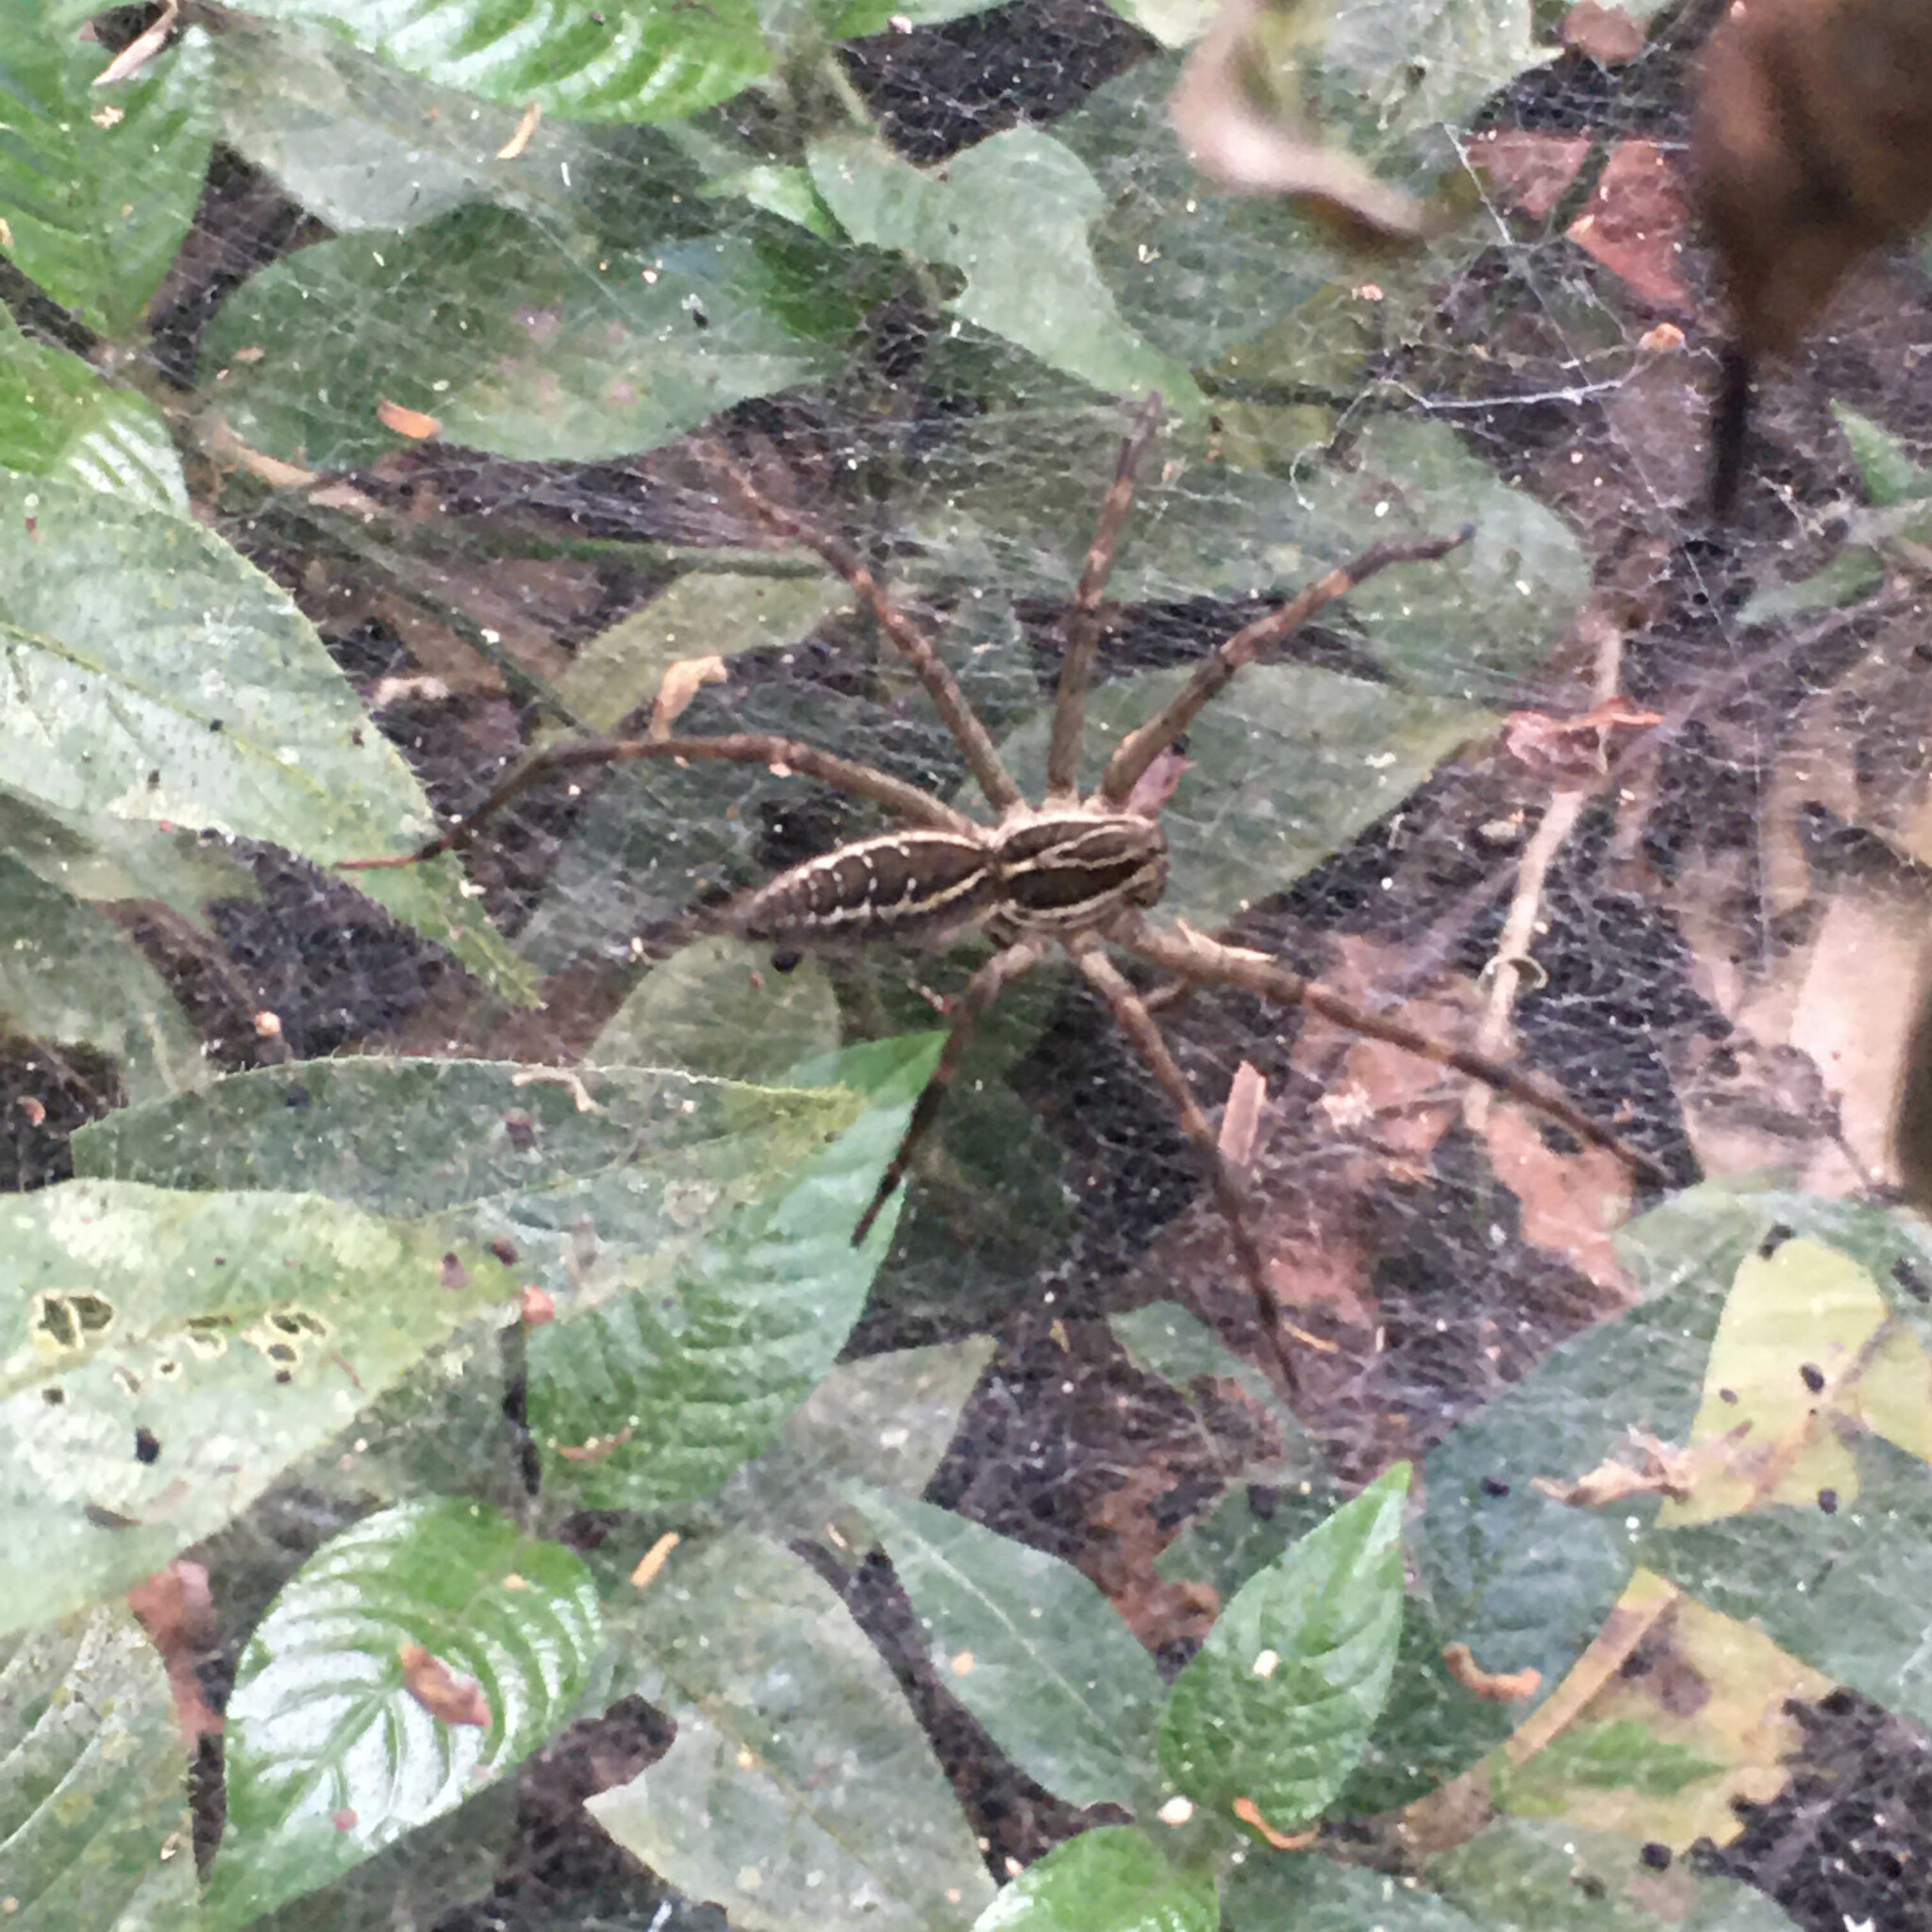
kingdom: Animalia
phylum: Arthropoda
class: Arachnida
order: Araneae
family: Lycosidae
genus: Aglaoctenus
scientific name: Aglaoctenus lagotis
